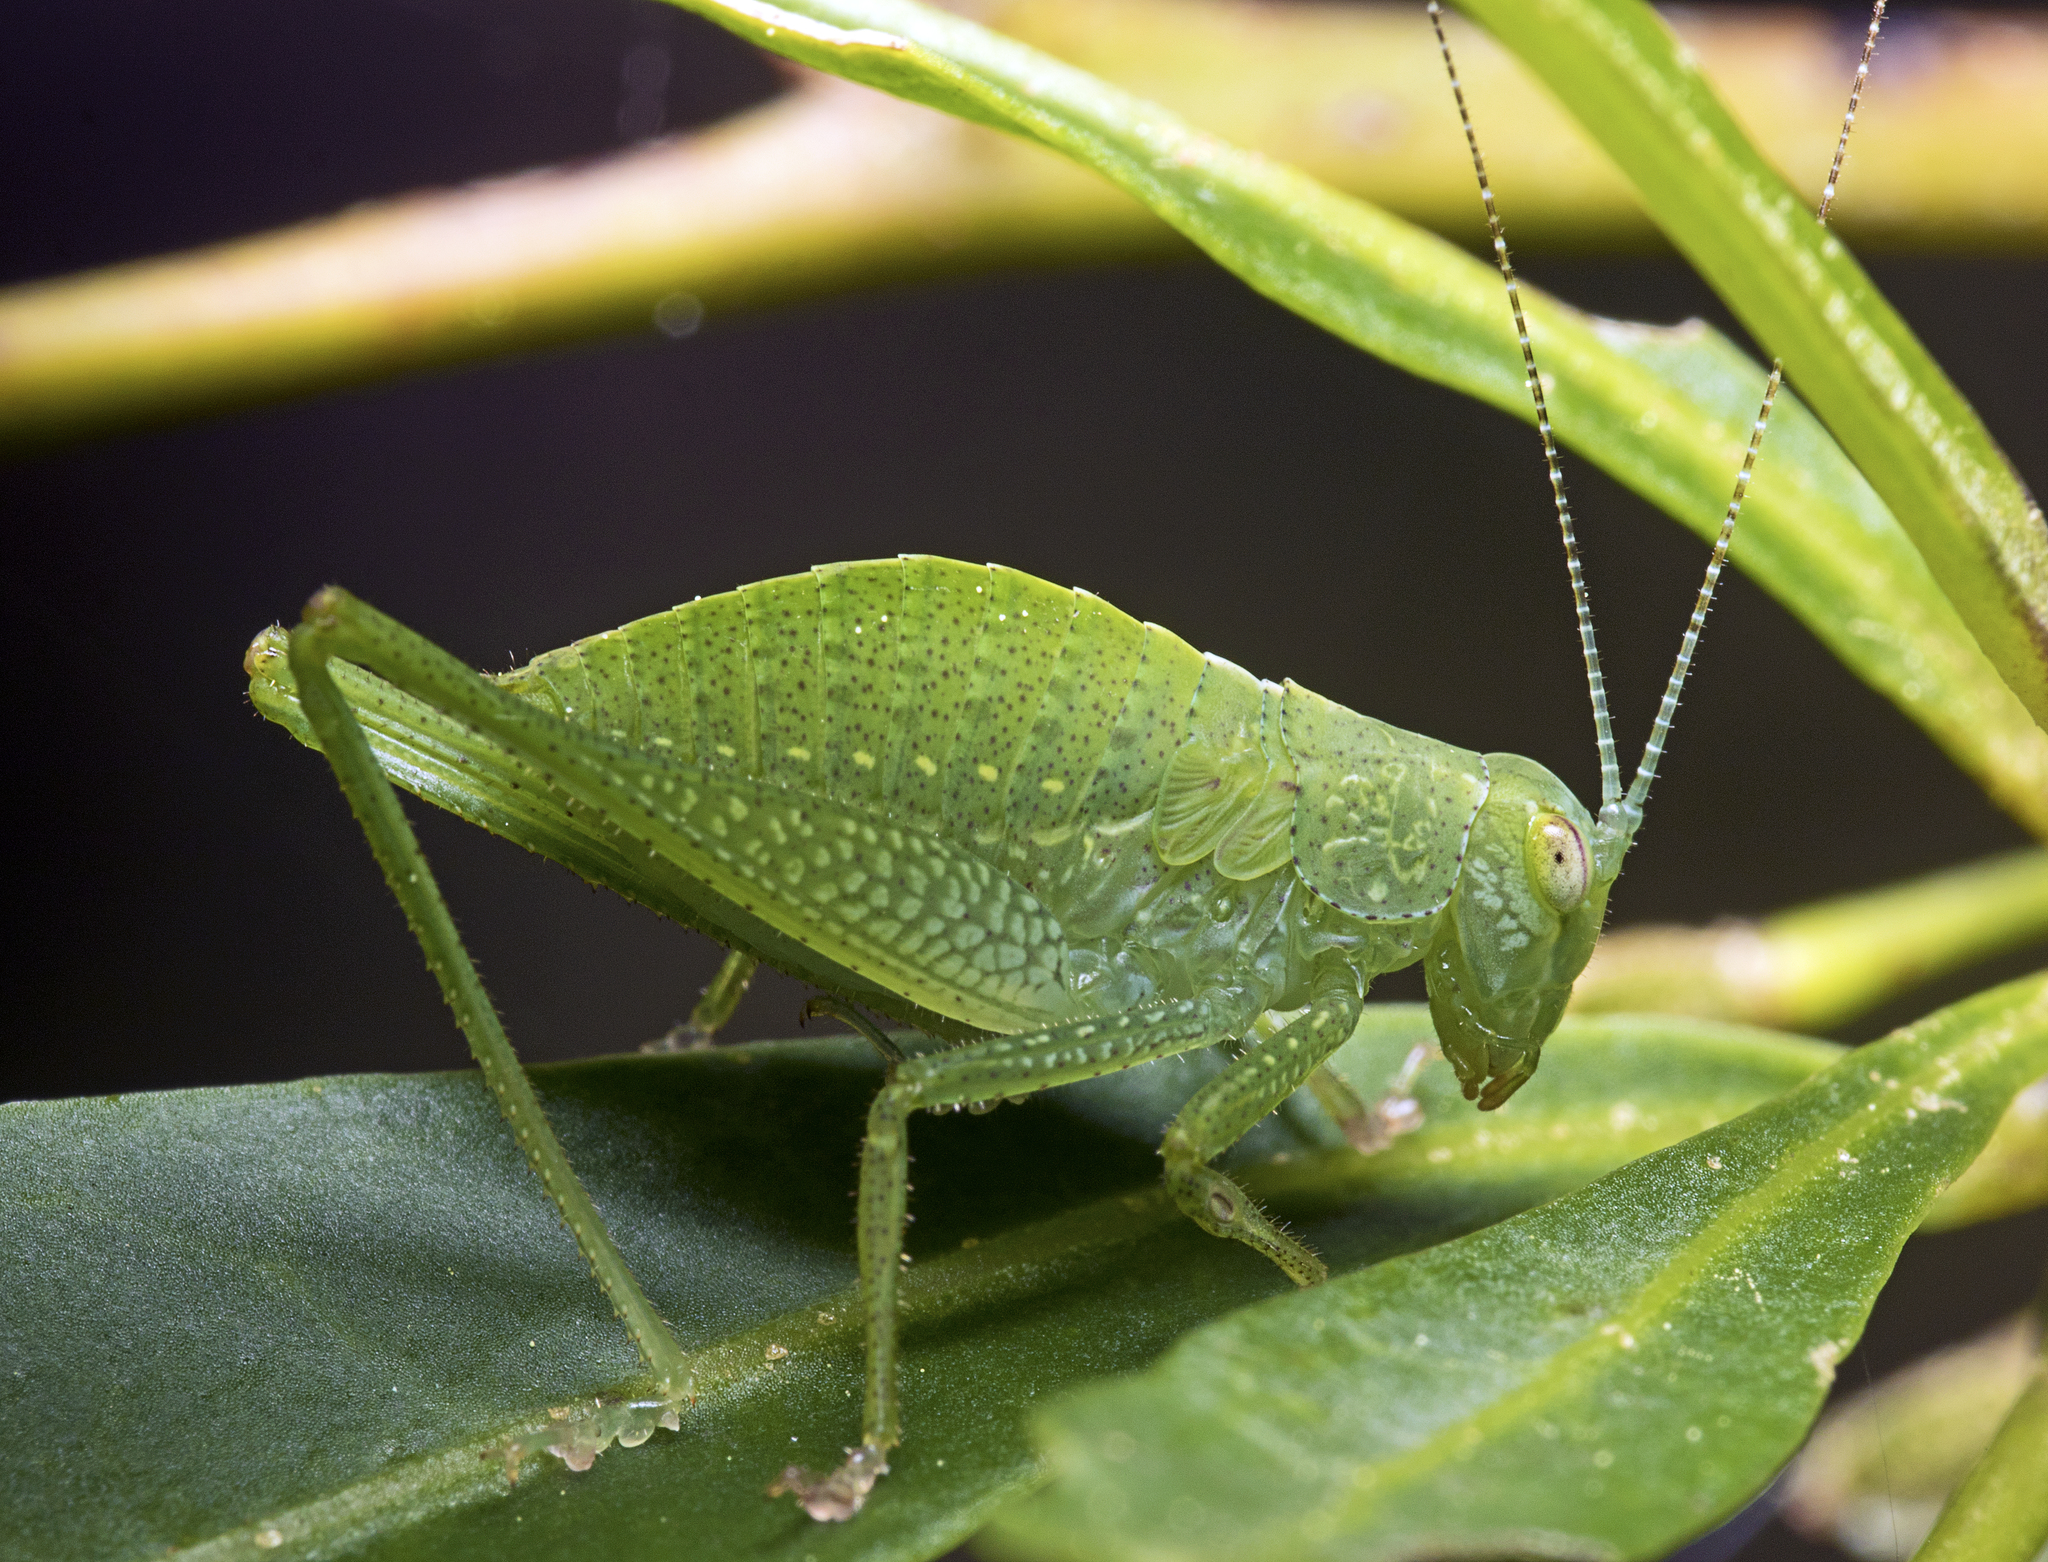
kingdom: Animalia
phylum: Arthropoda
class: Insecta
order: Orthoptera
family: Tettigoniidae
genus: Diastella
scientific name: Diastella latifolia
